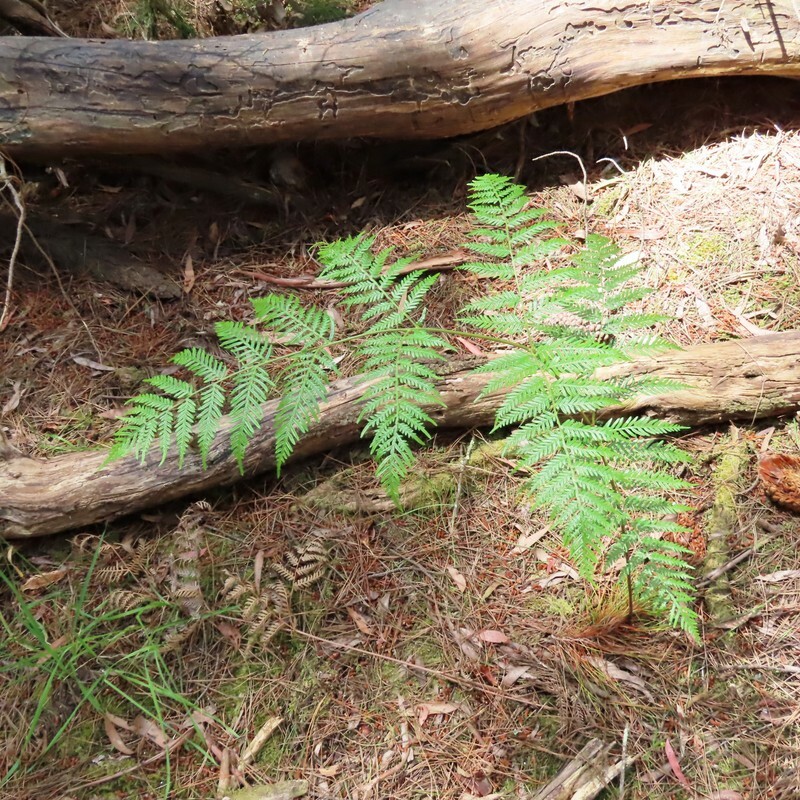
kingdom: Plantae
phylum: Tracheophyta
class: Polypodiopsida
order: Polypodiales
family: Dennstaedtiaceae
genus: Pteridium
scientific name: Pteridium esculentum
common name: Bracken fern
